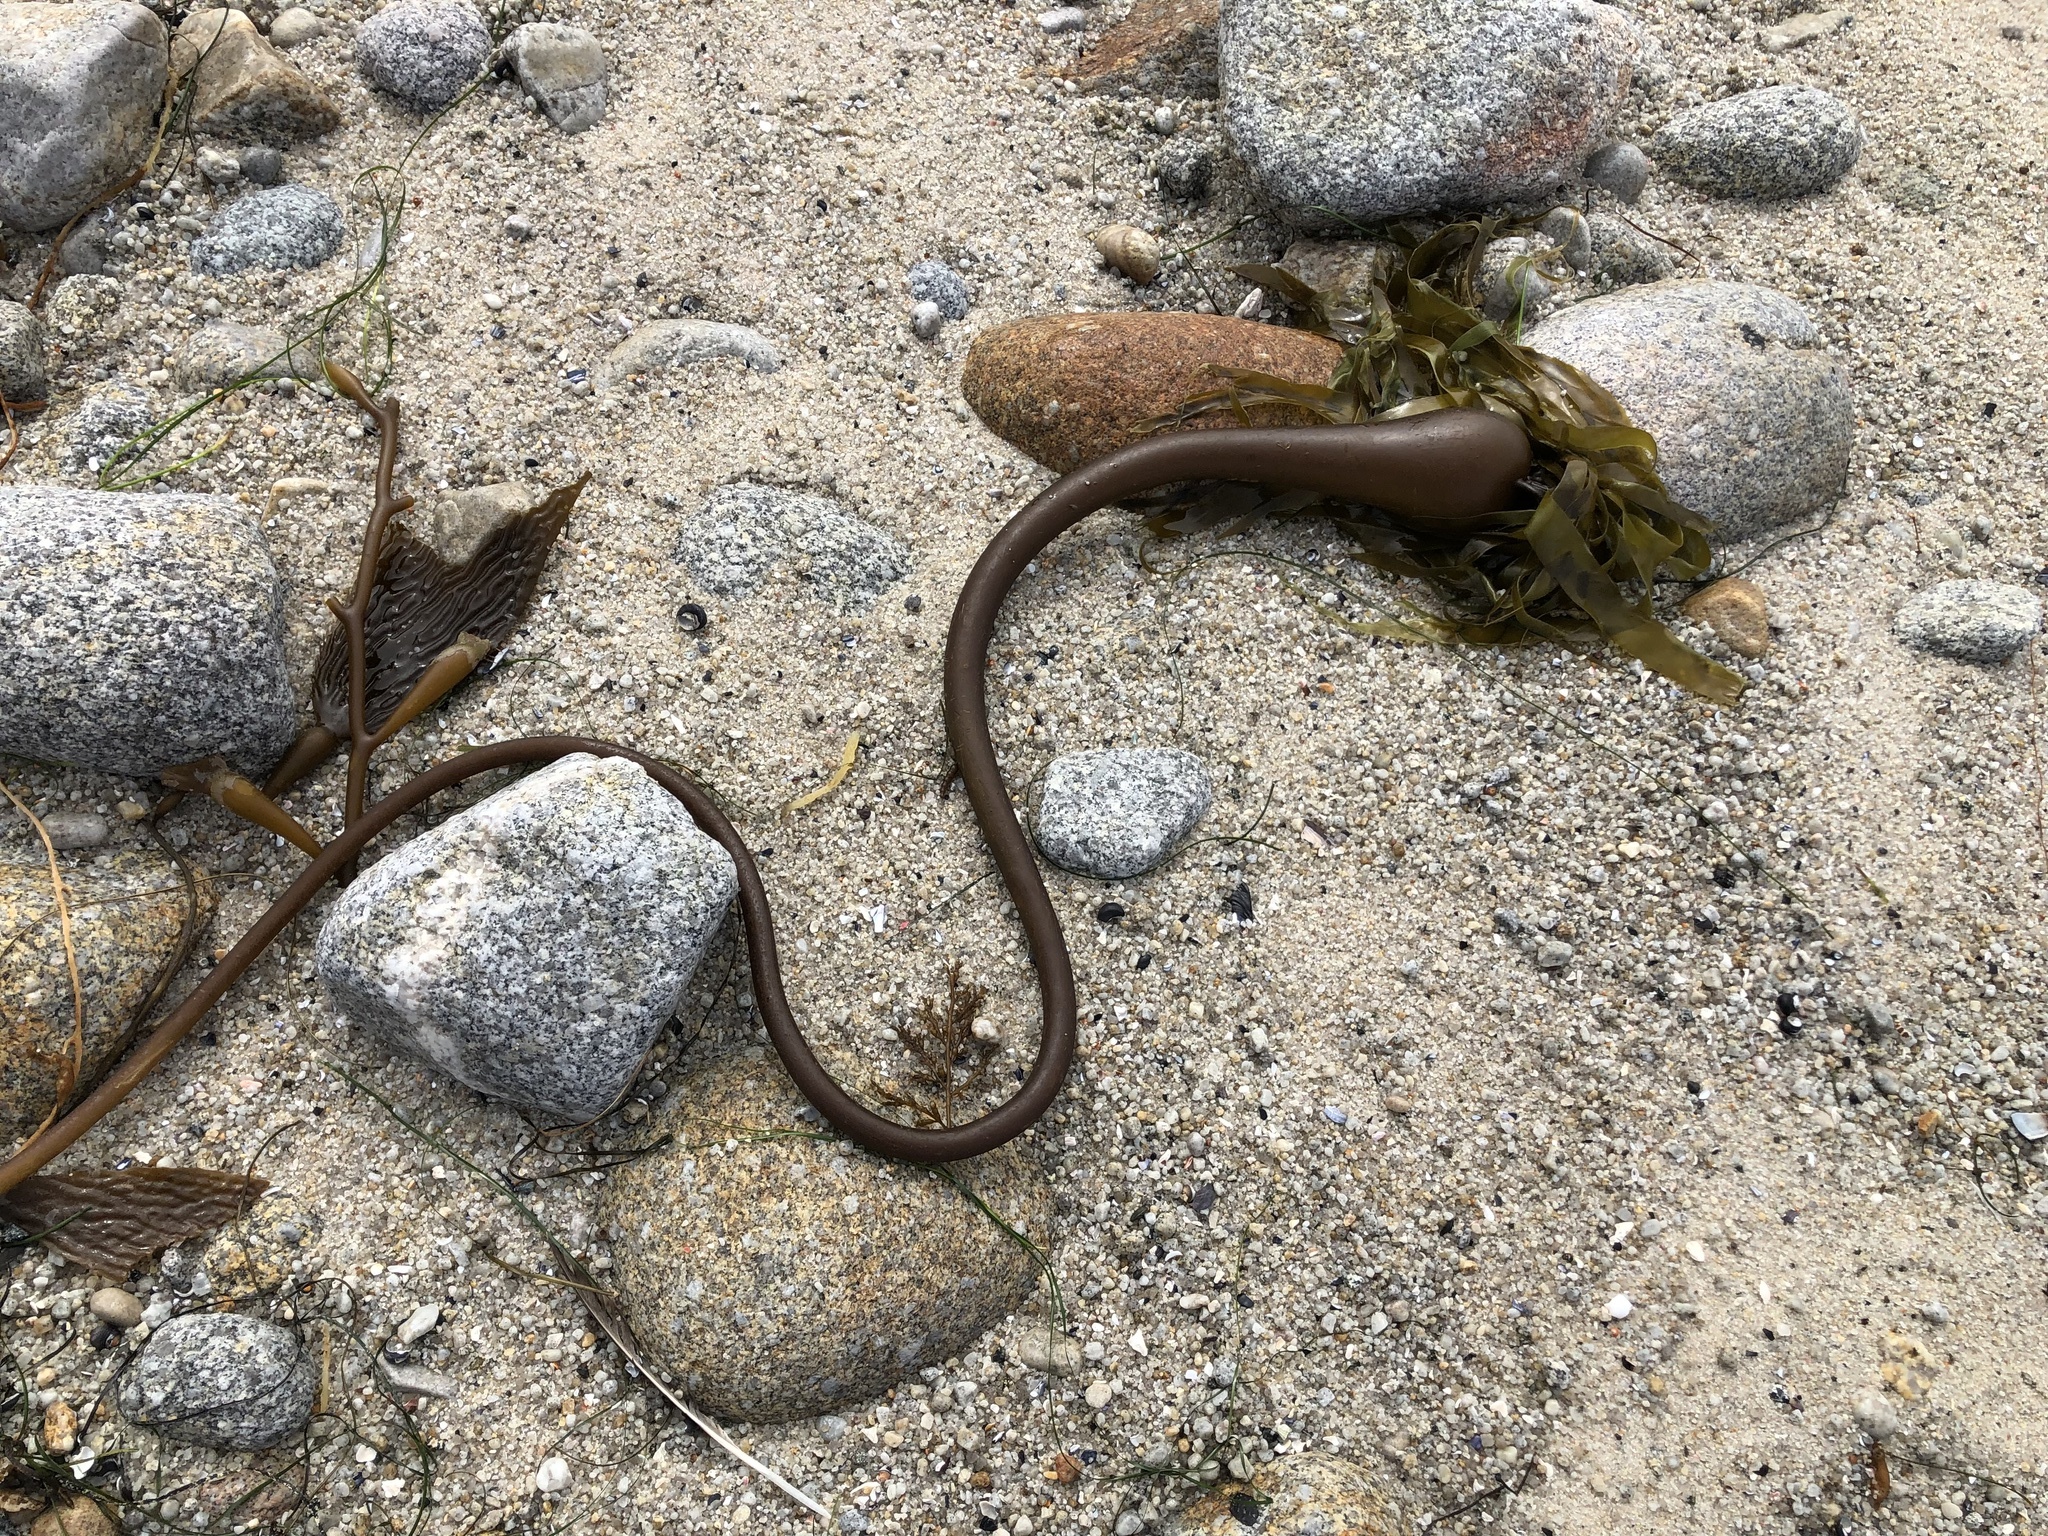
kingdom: Chromista
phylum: Ochrophyta
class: Phaeophyceae
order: Laminariales
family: Laminariaceae
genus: Nereocystis
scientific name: Nereocystis luetkeana
